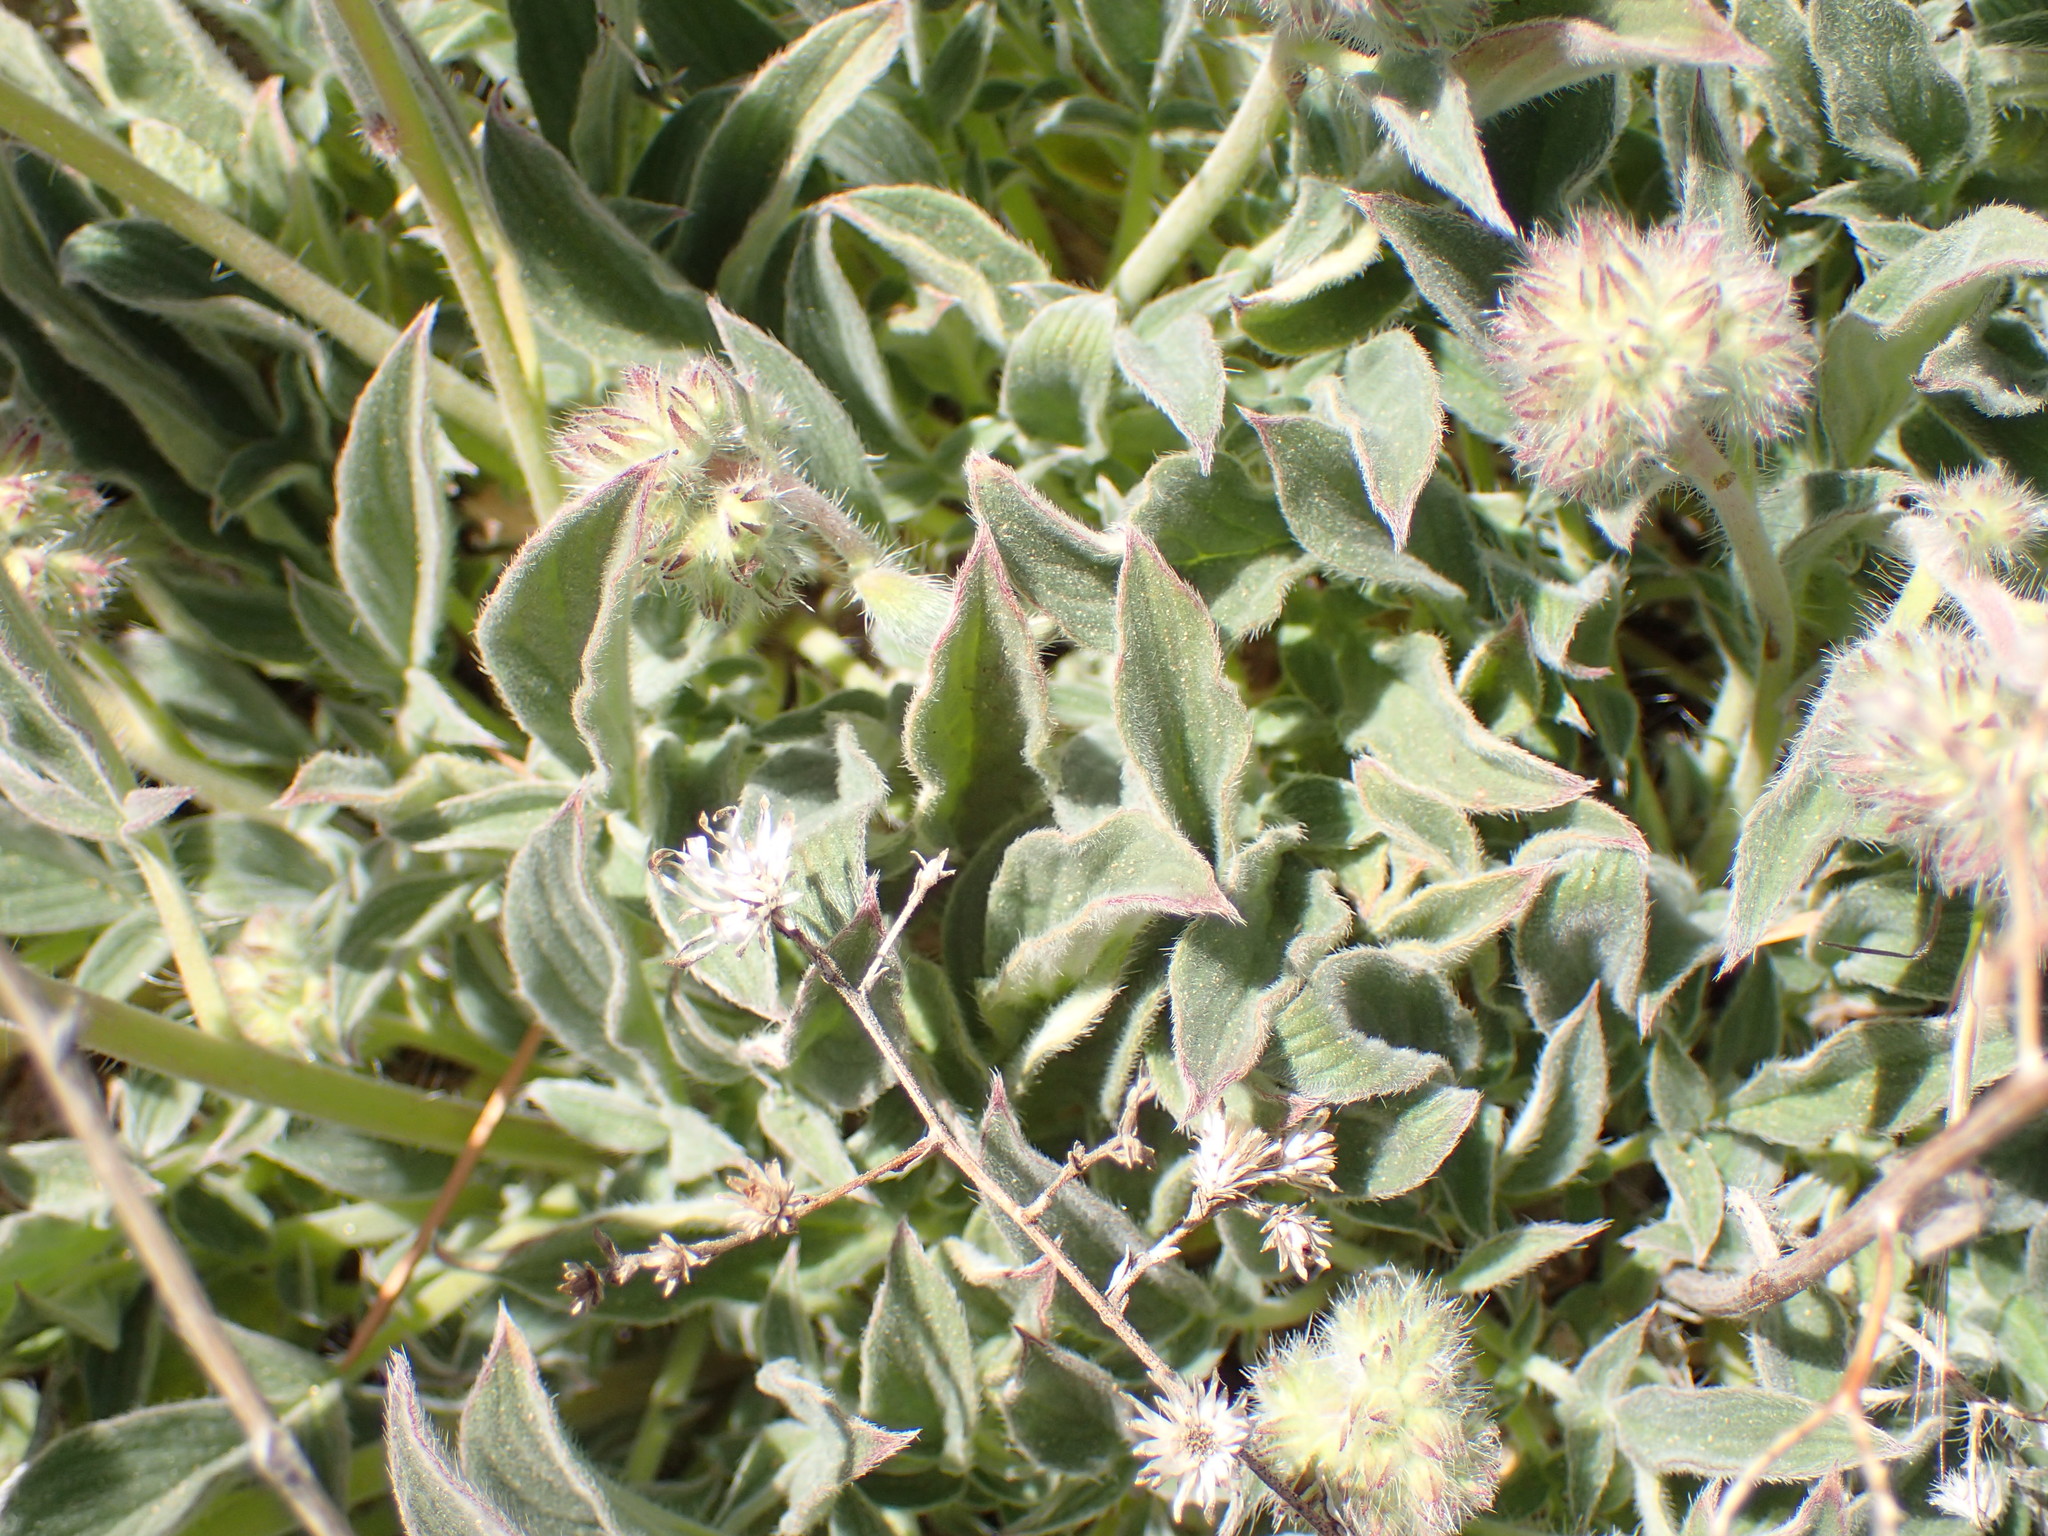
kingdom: Plantae
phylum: Tracheophyta
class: Magnoliopsida
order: Boraginales
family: Hydrophyllaceae
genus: Phacelia
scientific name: Phacelia imbricata
